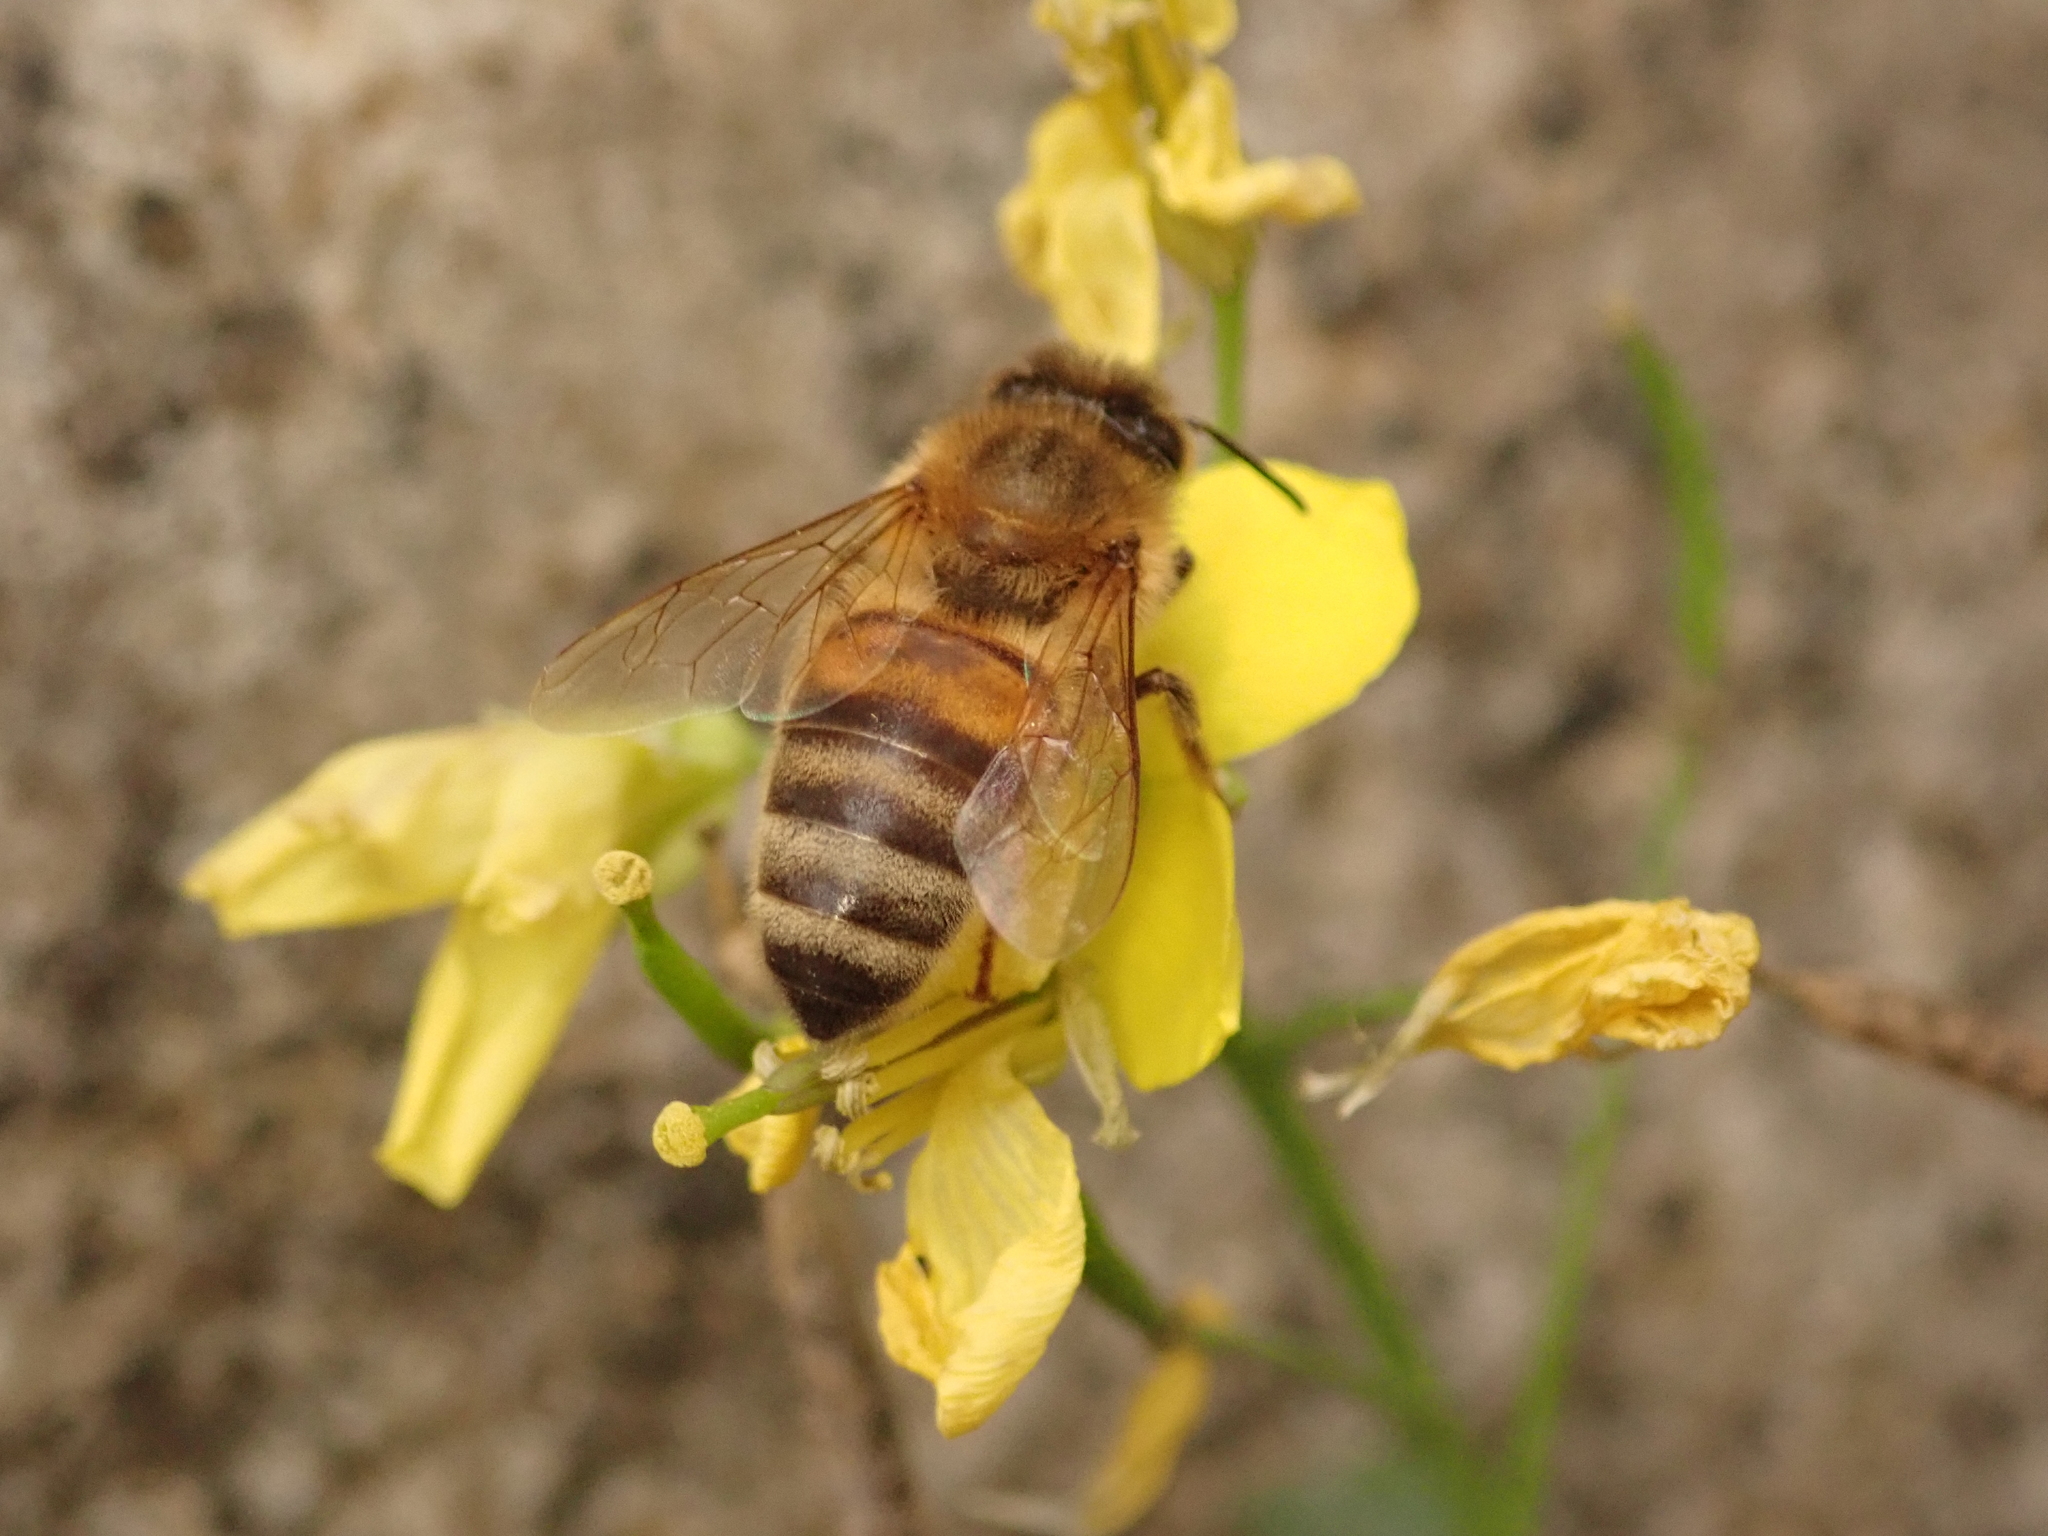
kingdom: Animalia
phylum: Arthropoda
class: Insecta
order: Hymenoptera
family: Apidae
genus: Apis
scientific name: Apis mellifera
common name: Honey bee
